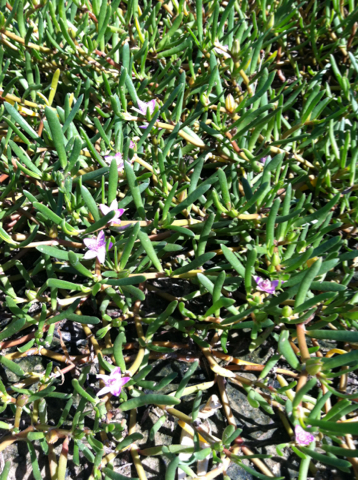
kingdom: Plantae
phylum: Tracheophyta
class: Magnoliopsida
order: Caryophyllales
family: Aizoaceae
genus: Sesuvium
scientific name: Sesuvium portulacastrum
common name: Sea-purslane
